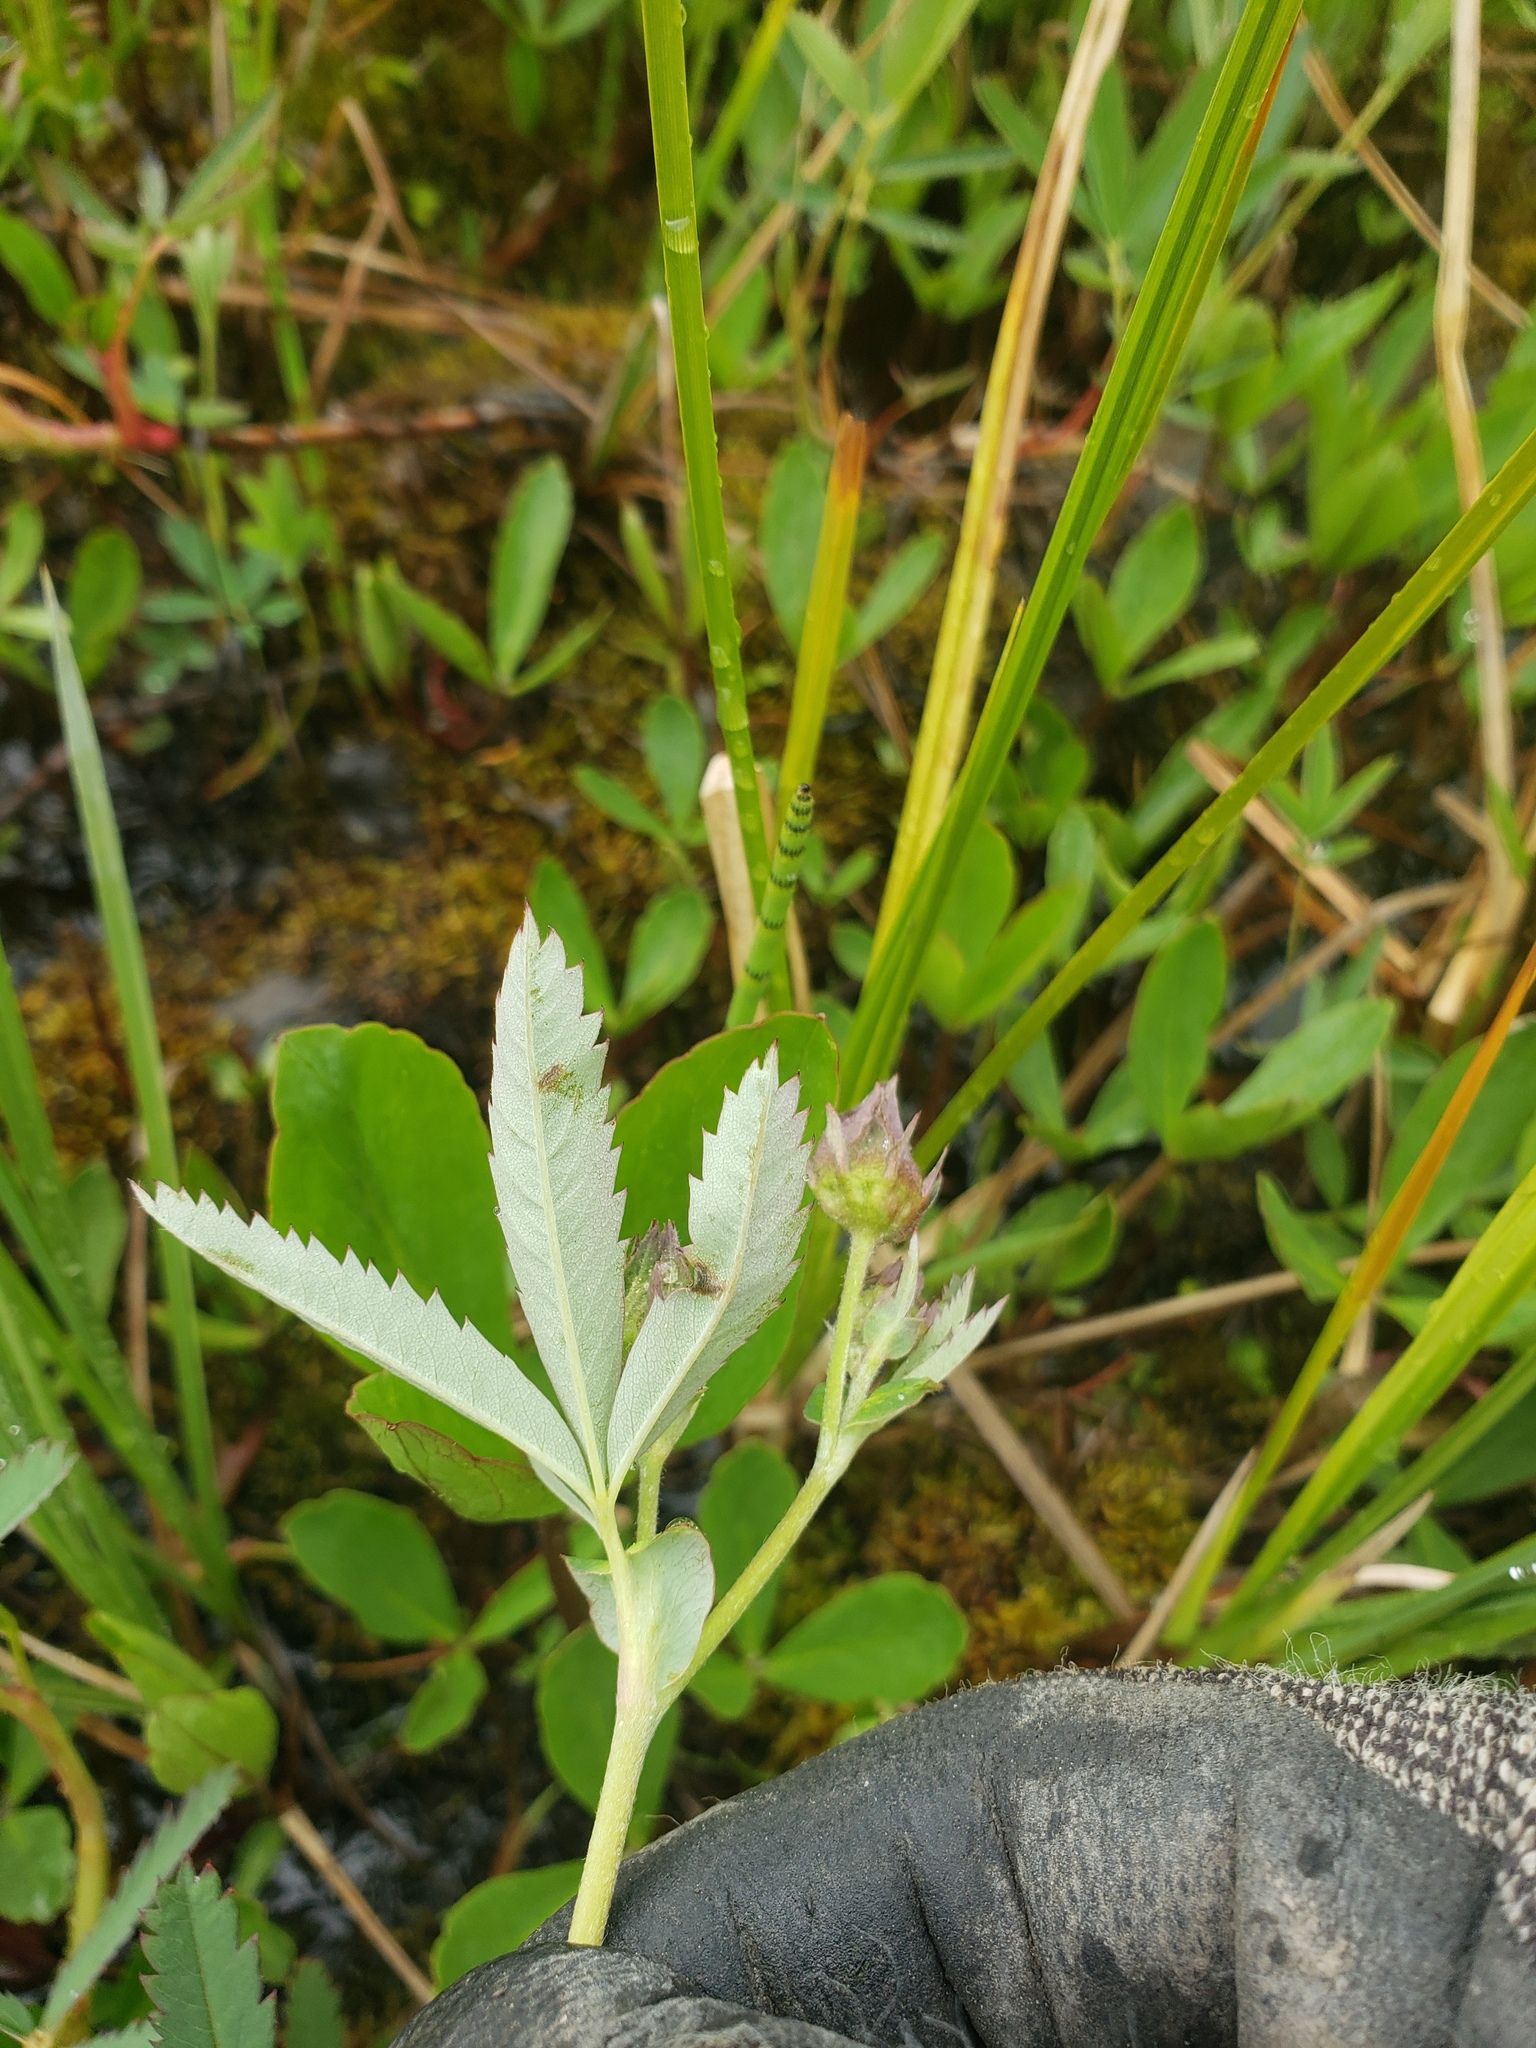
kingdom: Plantae
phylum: Tracheophyta
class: Magnoliopsida
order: Rosales
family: Rosaceae
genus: Comarum
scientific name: Comarum palustre
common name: Marsh cinquefoil
